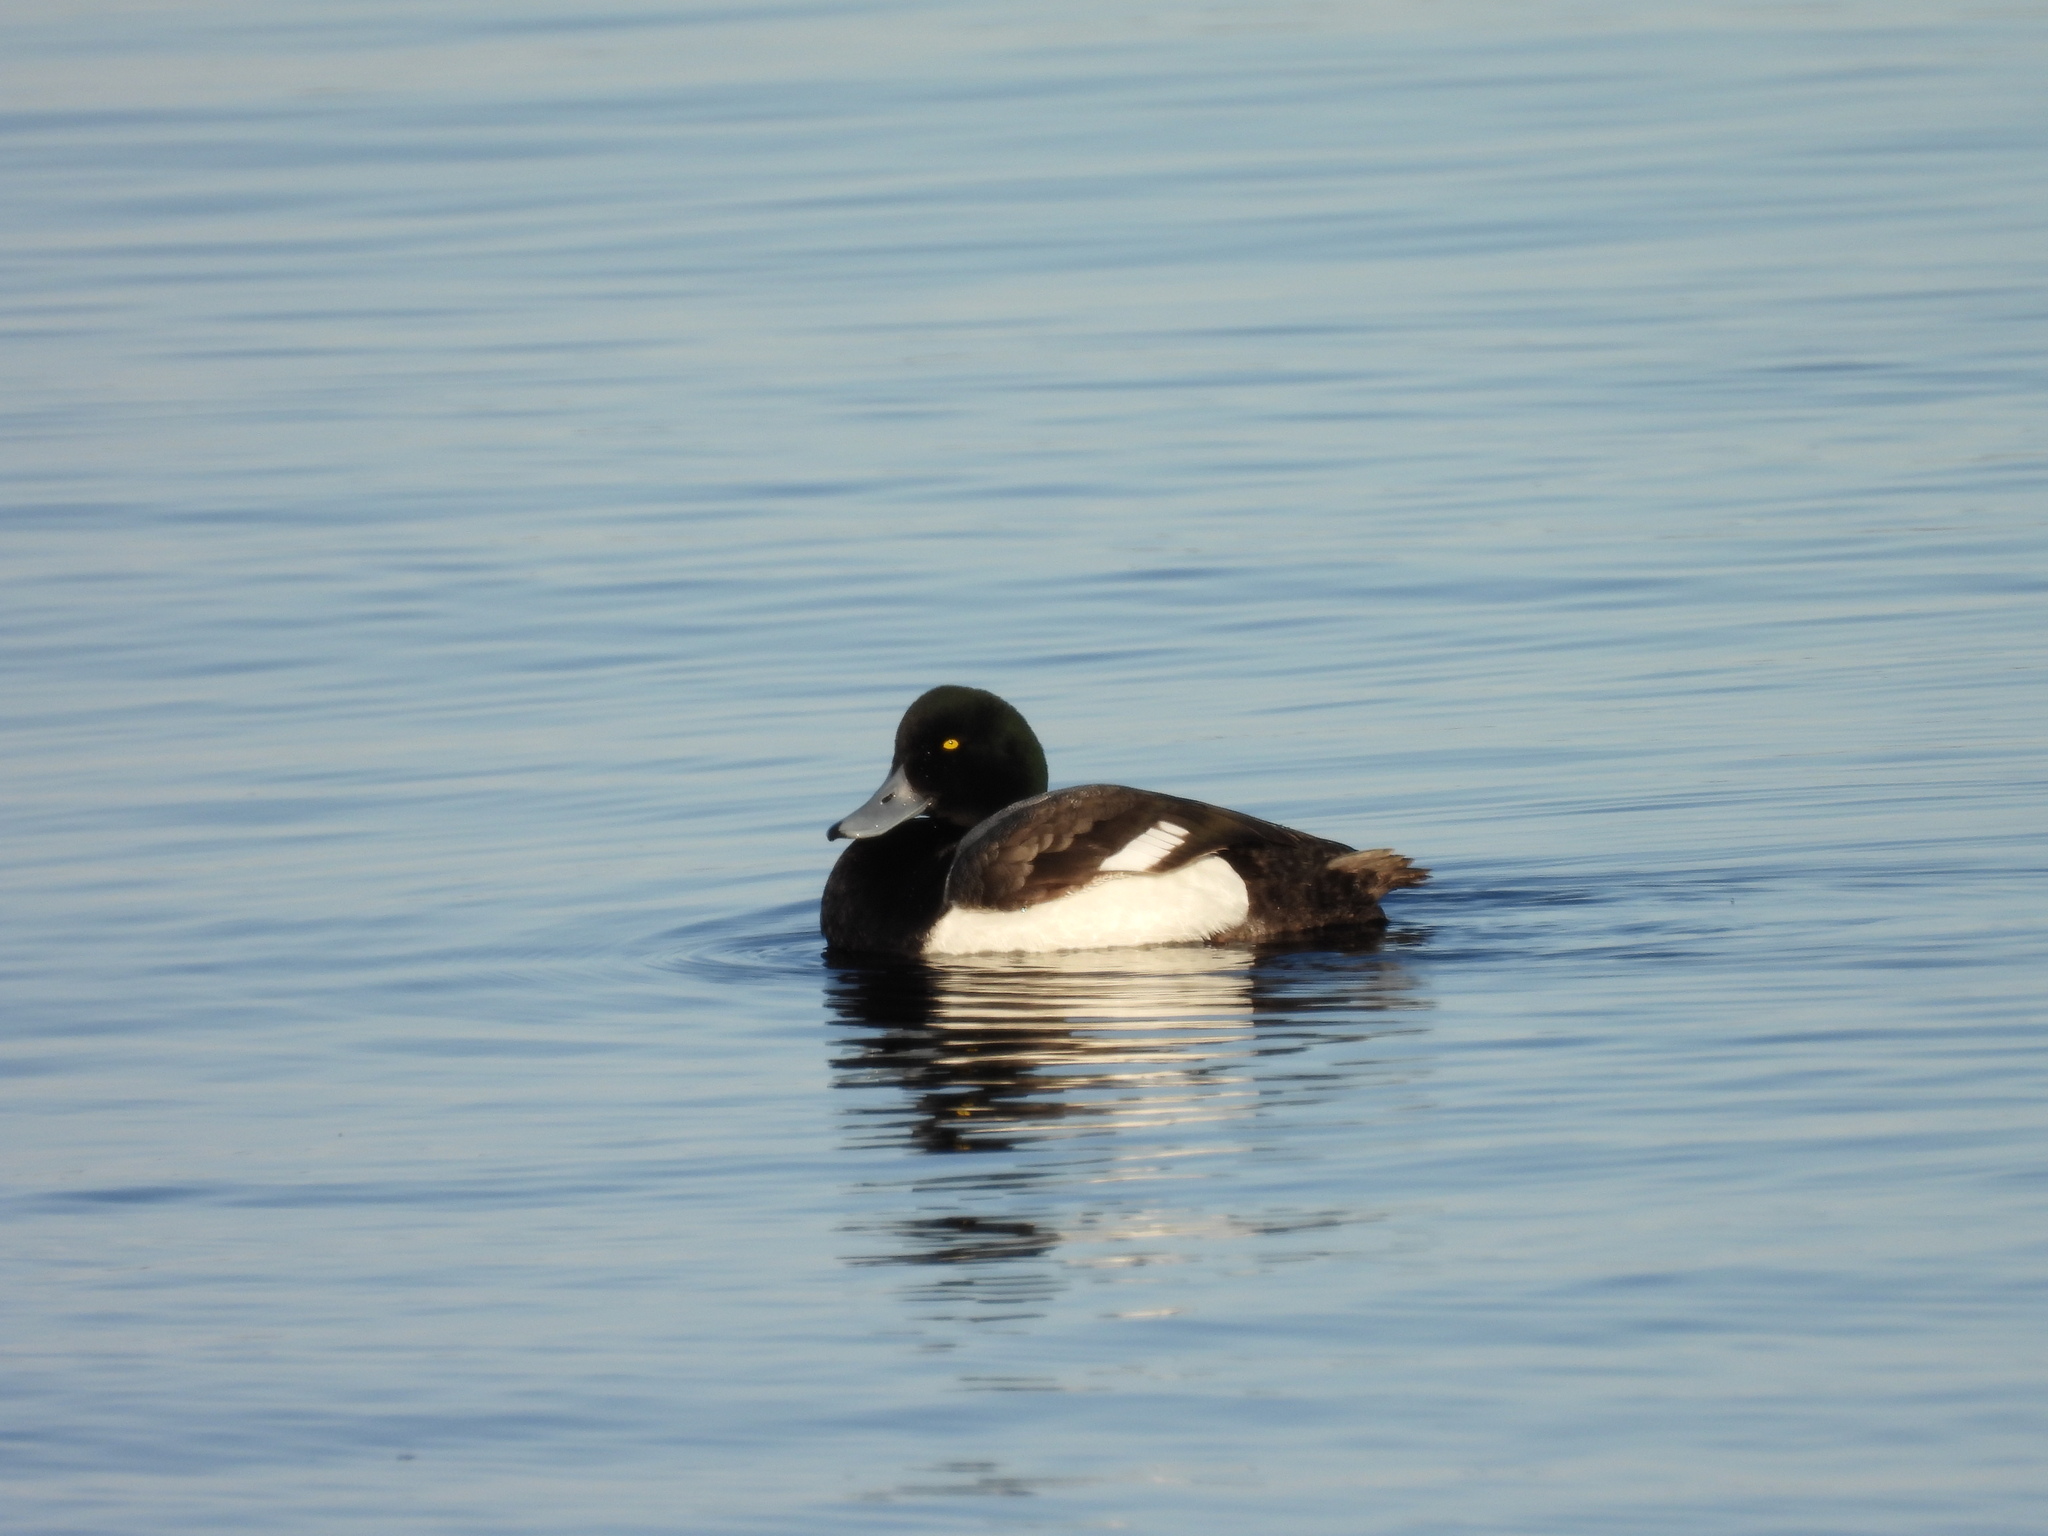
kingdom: Animalia
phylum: Chordata
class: Aves
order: Anseriformes
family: Anatidae
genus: Aythya
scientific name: Aythya marila
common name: Greater scaup
